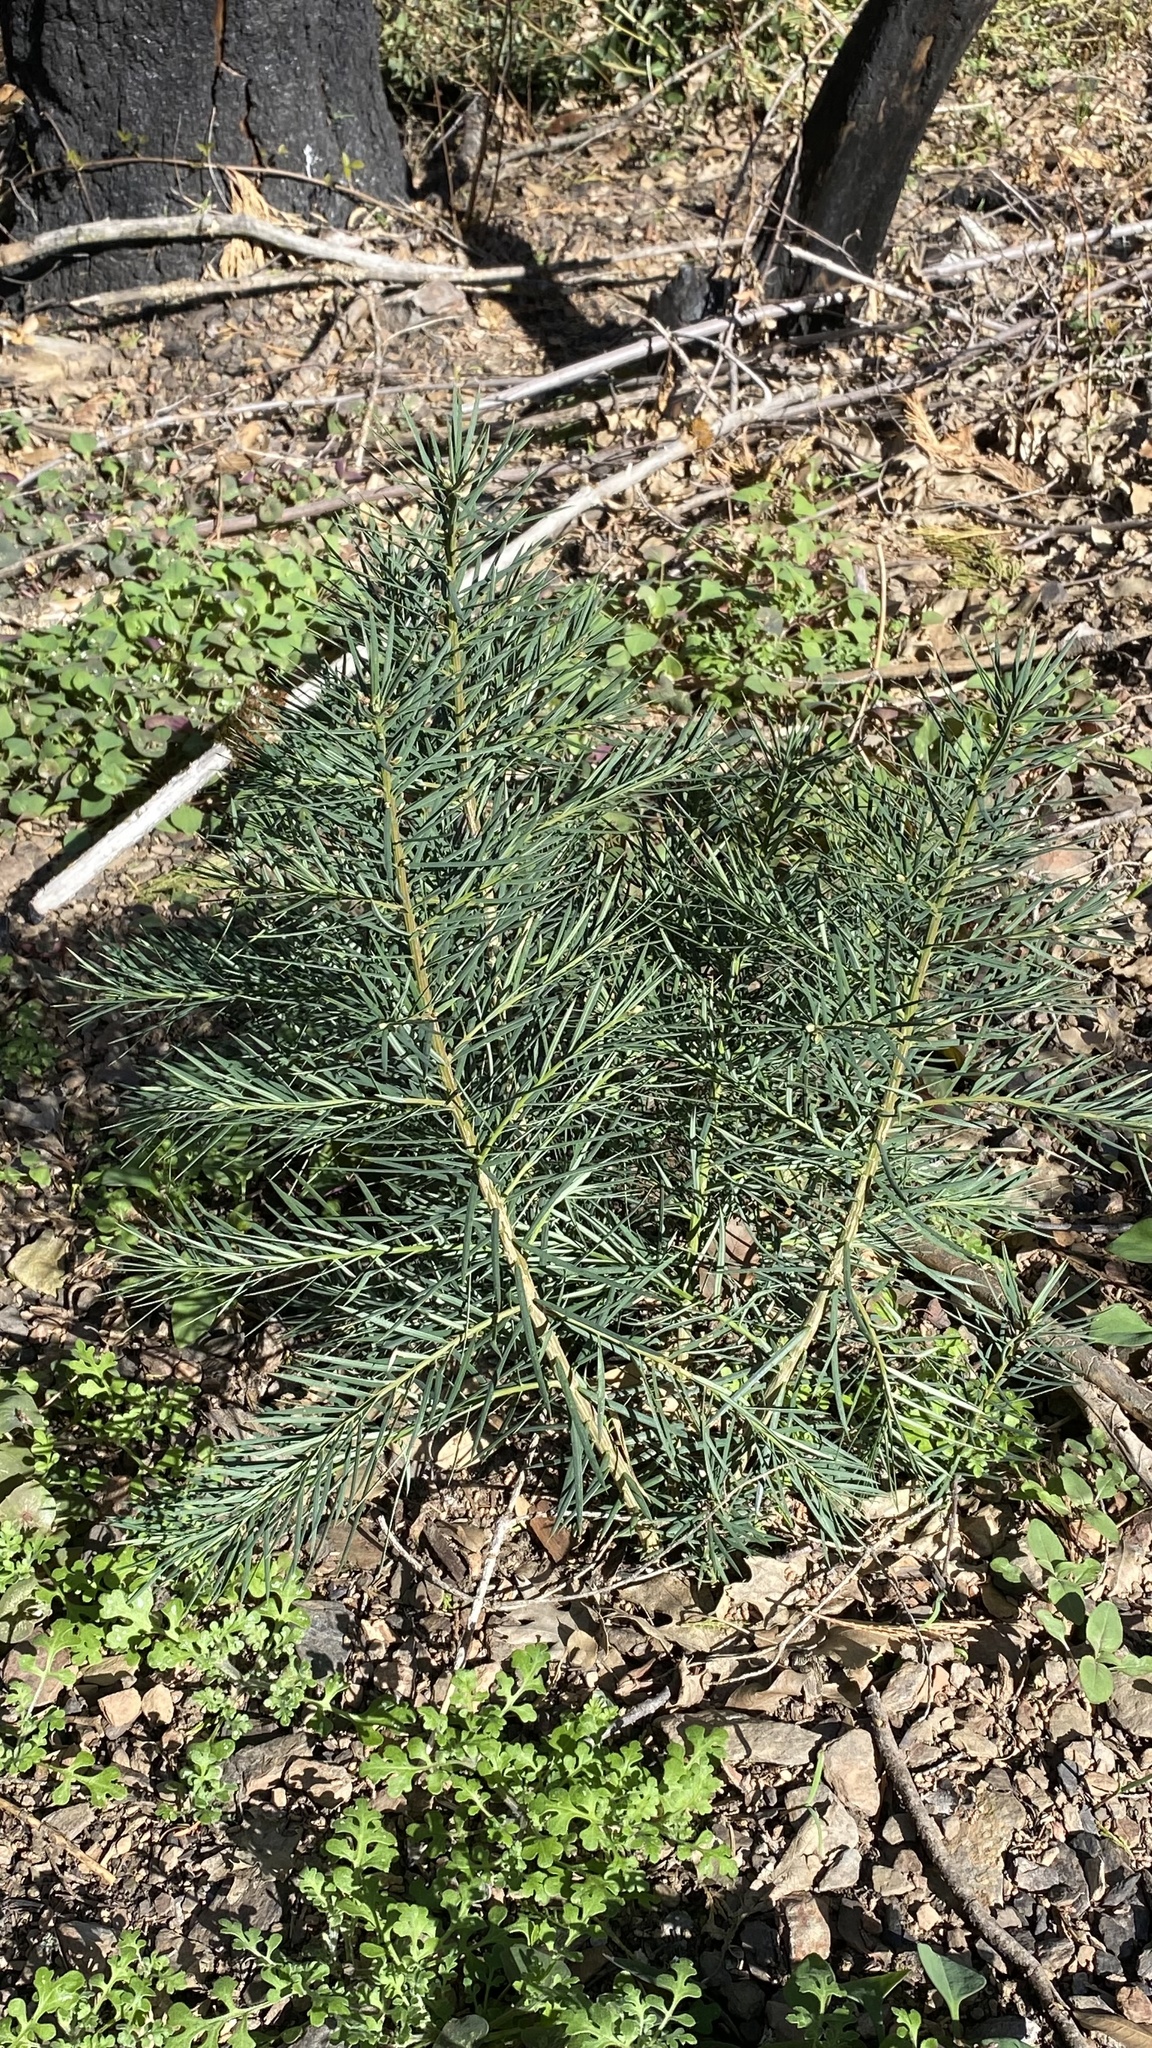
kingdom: Plantae
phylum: Tracheophyta
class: Pinopsida
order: Pinales
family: Taxaceae
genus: Torreya
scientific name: Torreya californica
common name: California torreya
